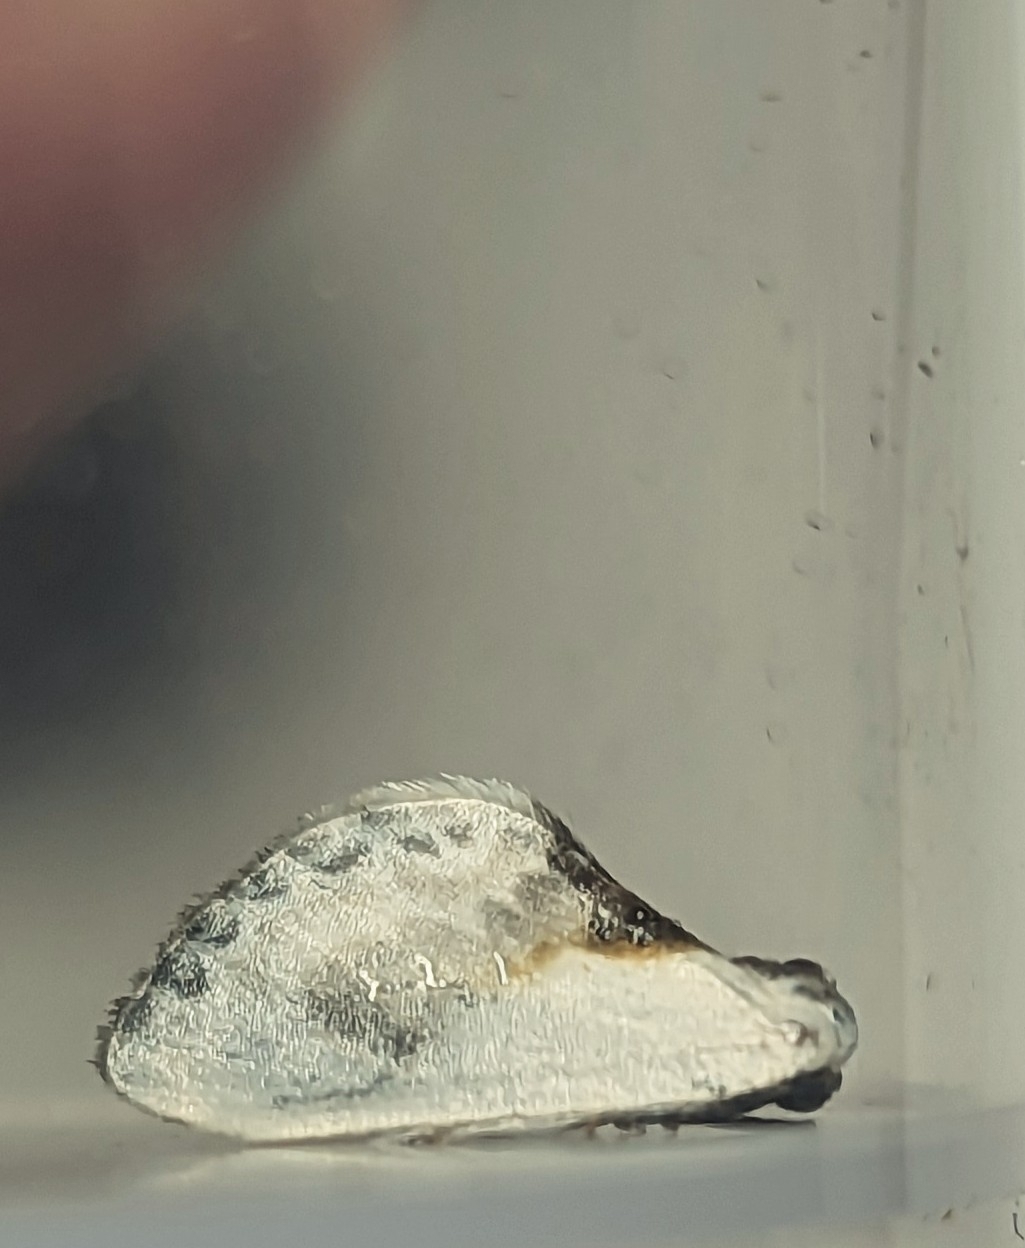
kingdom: Animalia
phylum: Arthropoda
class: Insecta
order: Lepidoptera
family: Drepanidae
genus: Cilix
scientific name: Cilix glaucata
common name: Chinese character
